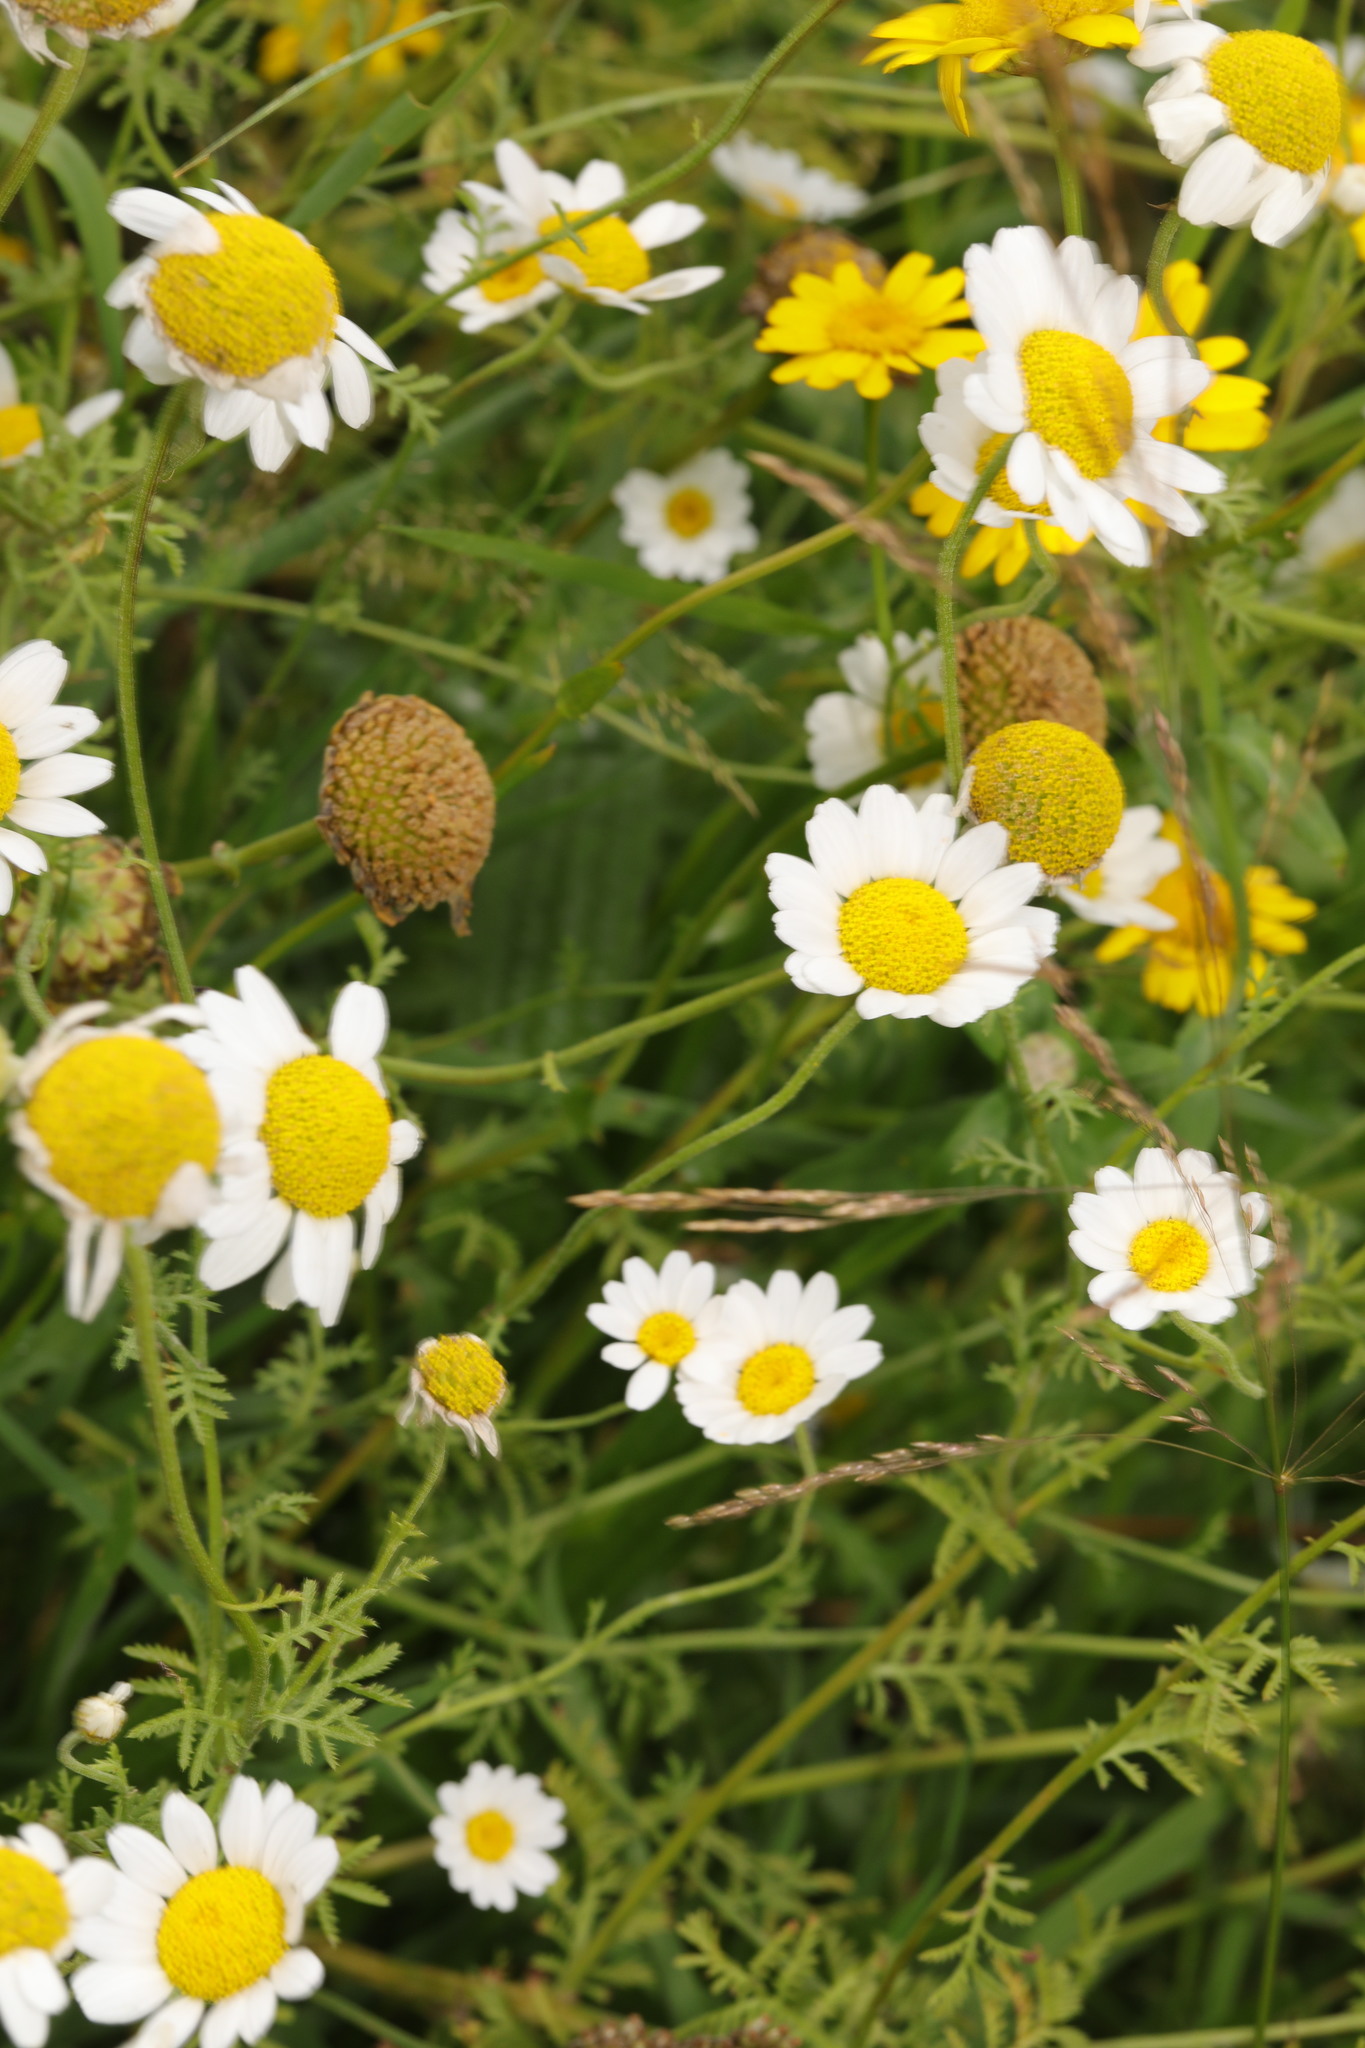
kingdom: Plantae
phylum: Tracheophyta
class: Magnoliopsida
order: Asterales
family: Asteraceae
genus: Cota
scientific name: Cota austriaca
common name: Austrian chamomile
